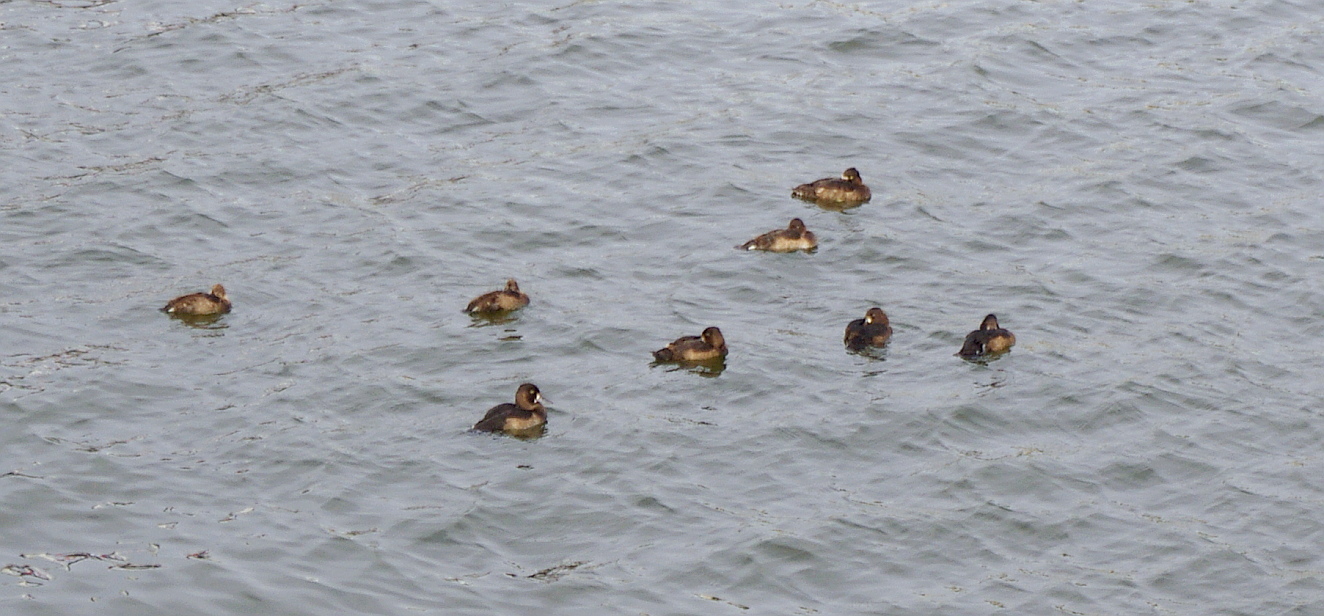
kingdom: Animalia
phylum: Chordata
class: Aves
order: Anseriformes
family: Anatidae
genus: Aythya
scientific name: Aythya fuligula
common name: Tufted duck
